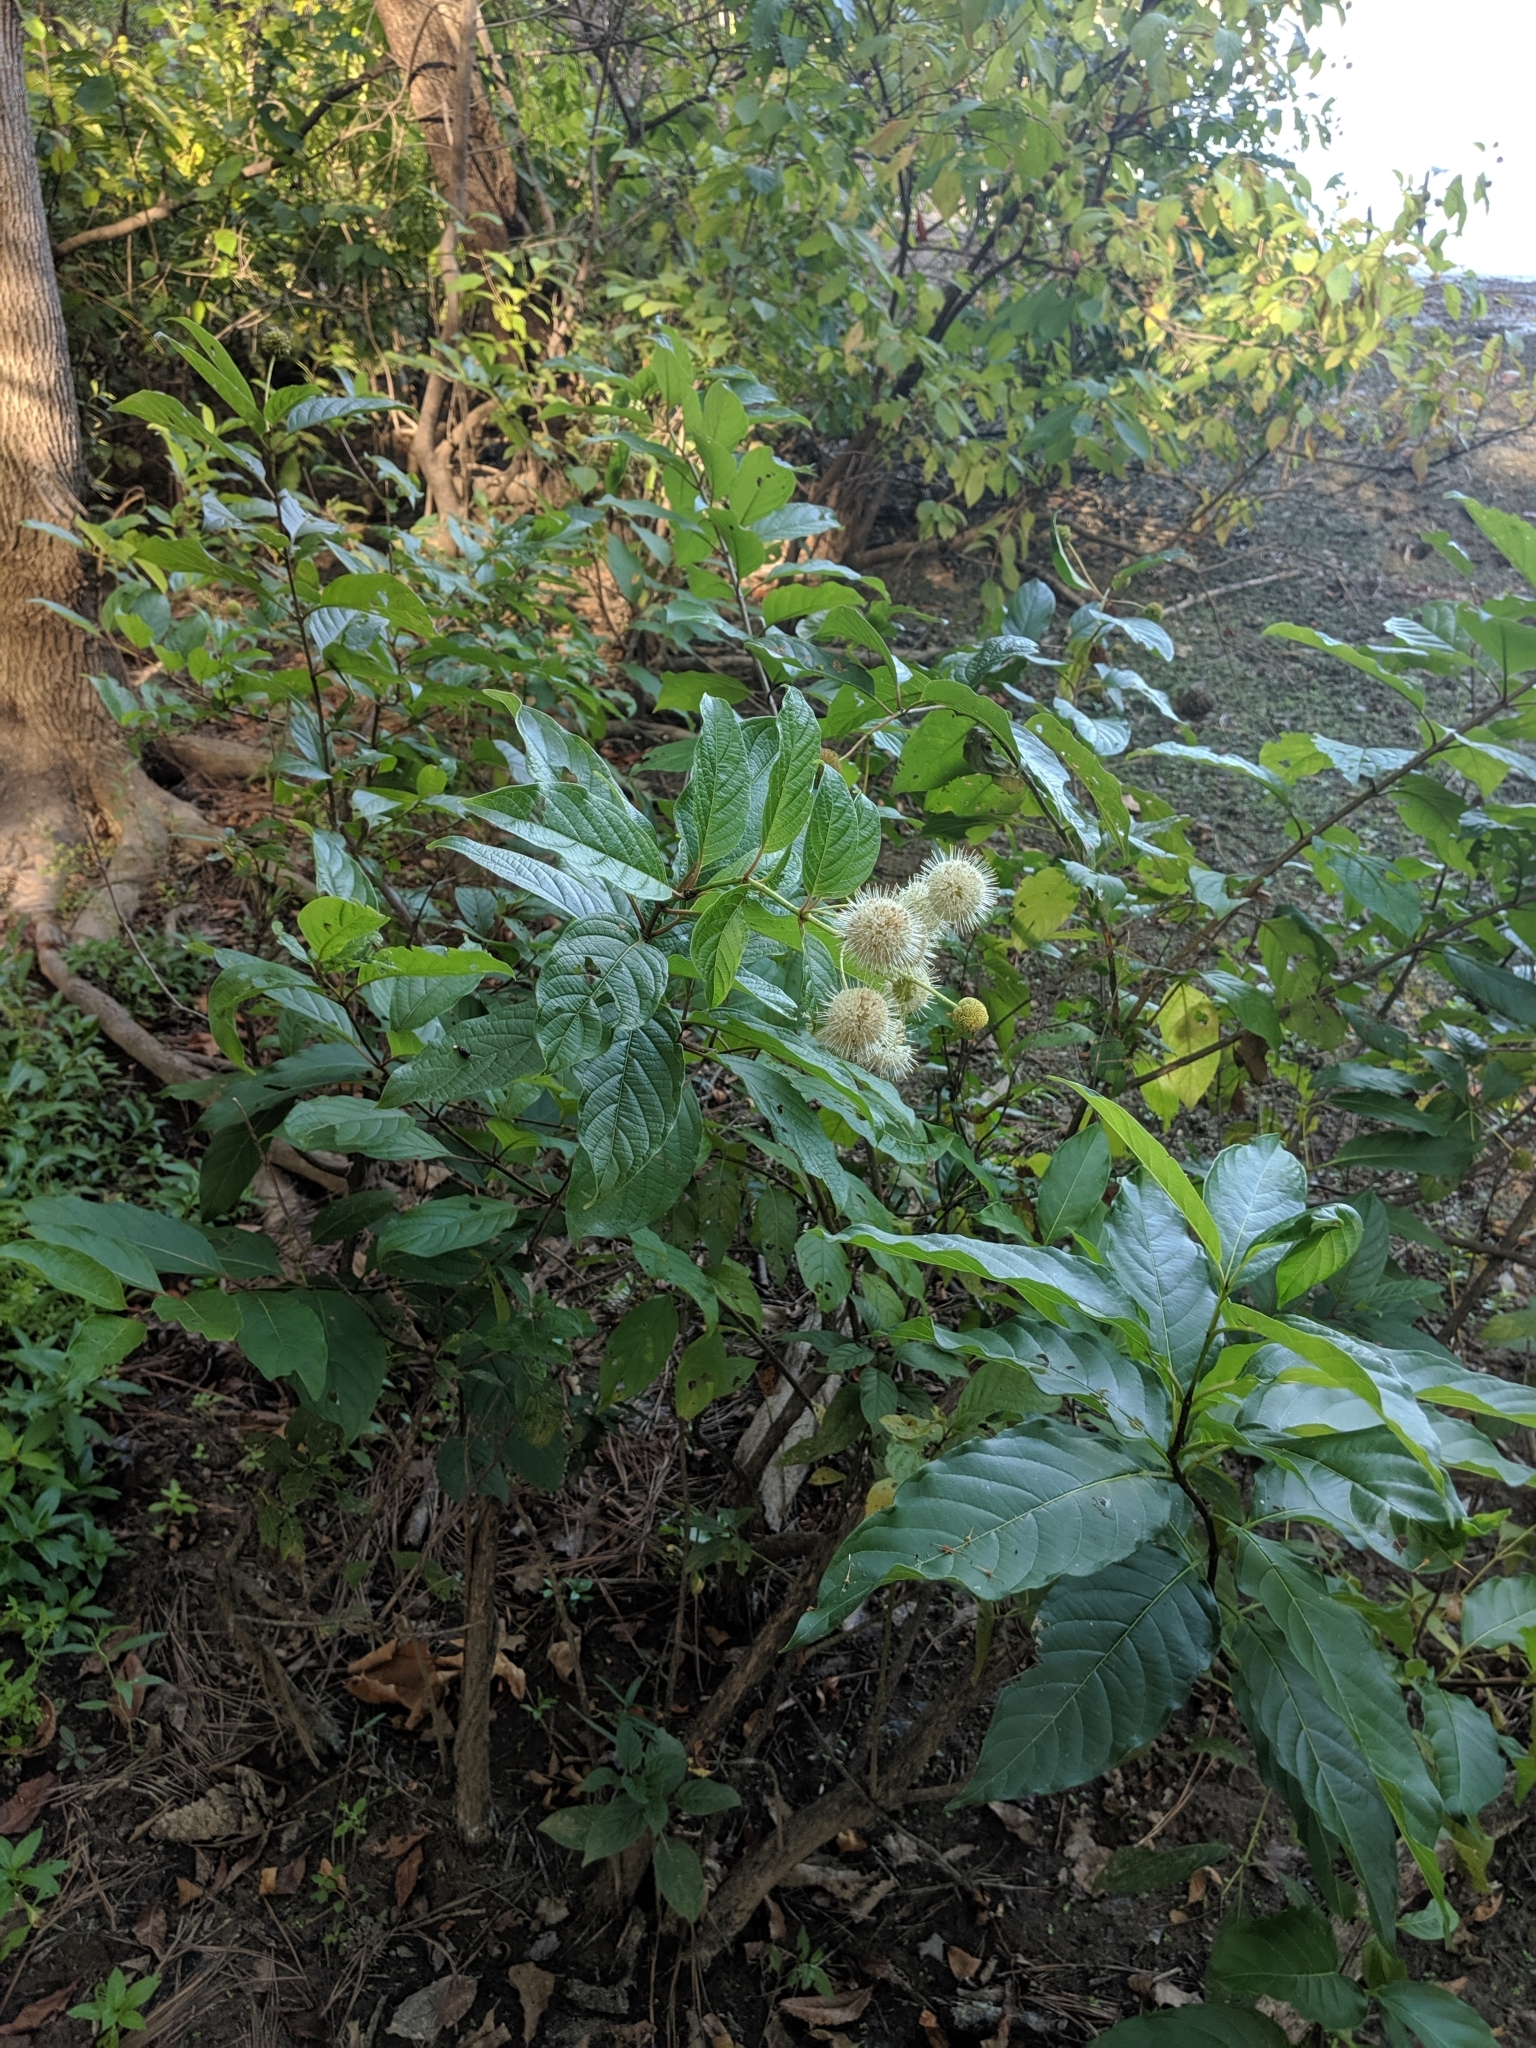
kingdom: Plantae
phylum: Tracheophyta
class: Magnoliopsida
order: Gentianales
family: Rubiaceae
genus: Cephalanthus
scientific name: Cephalanthus occidentalis
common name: Button-willow
